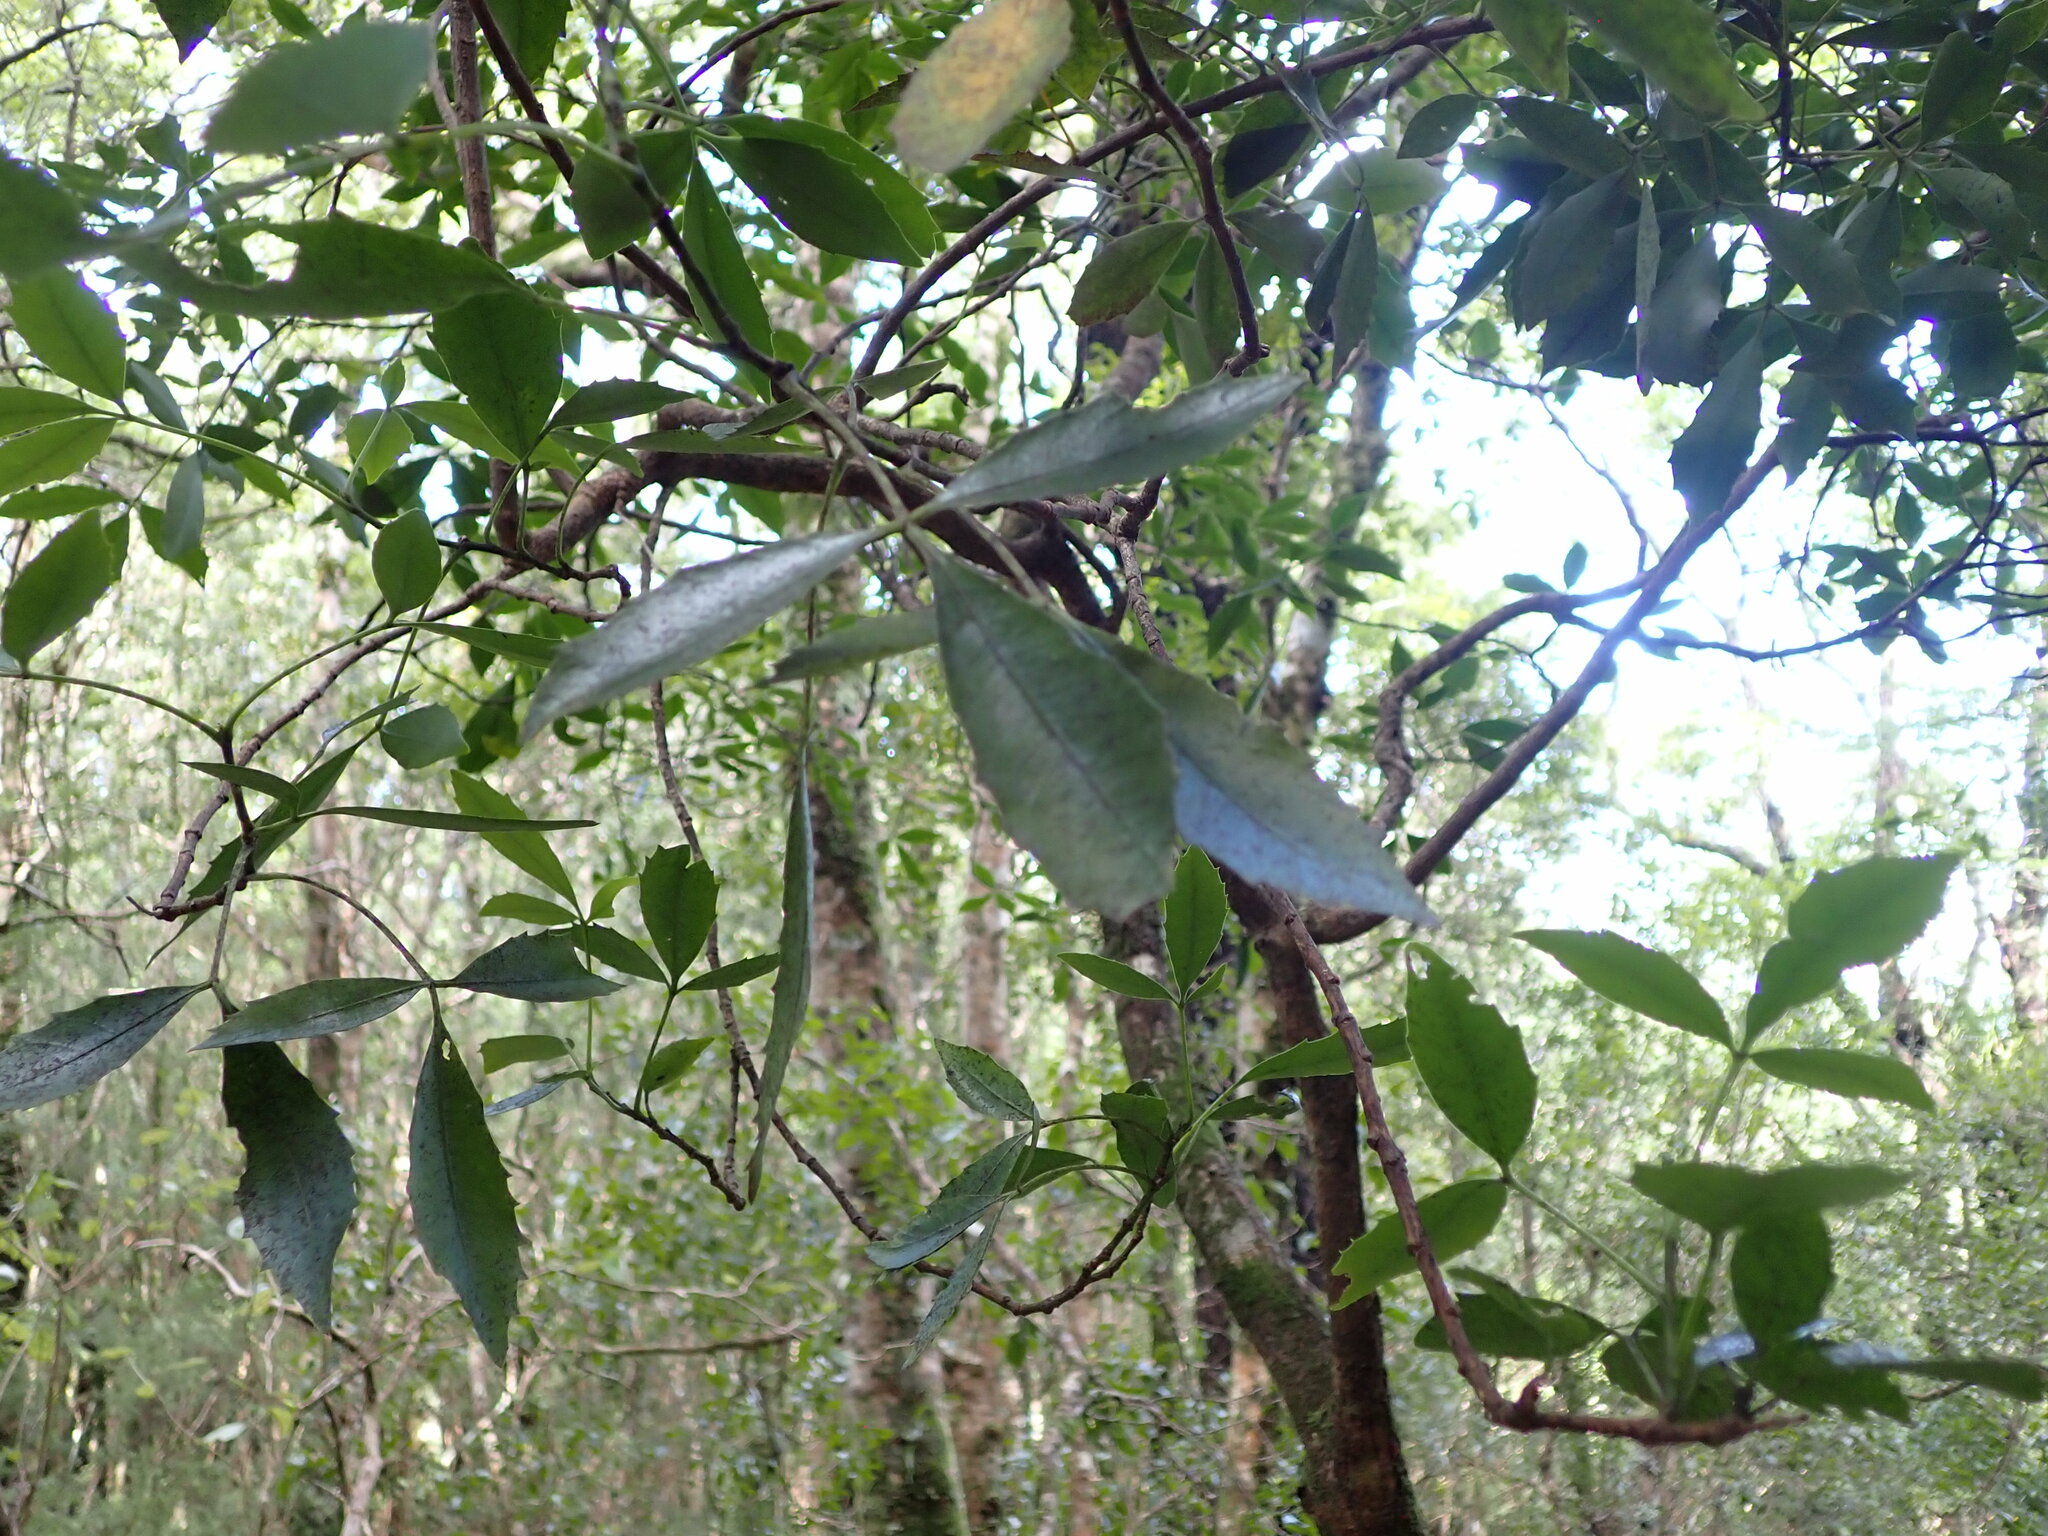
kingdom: Plantae
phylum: Tracheophyta
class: Magnoliopsida
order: Apiales
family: Araliaceae
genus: Raukaua
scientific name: Raukaua simplex
